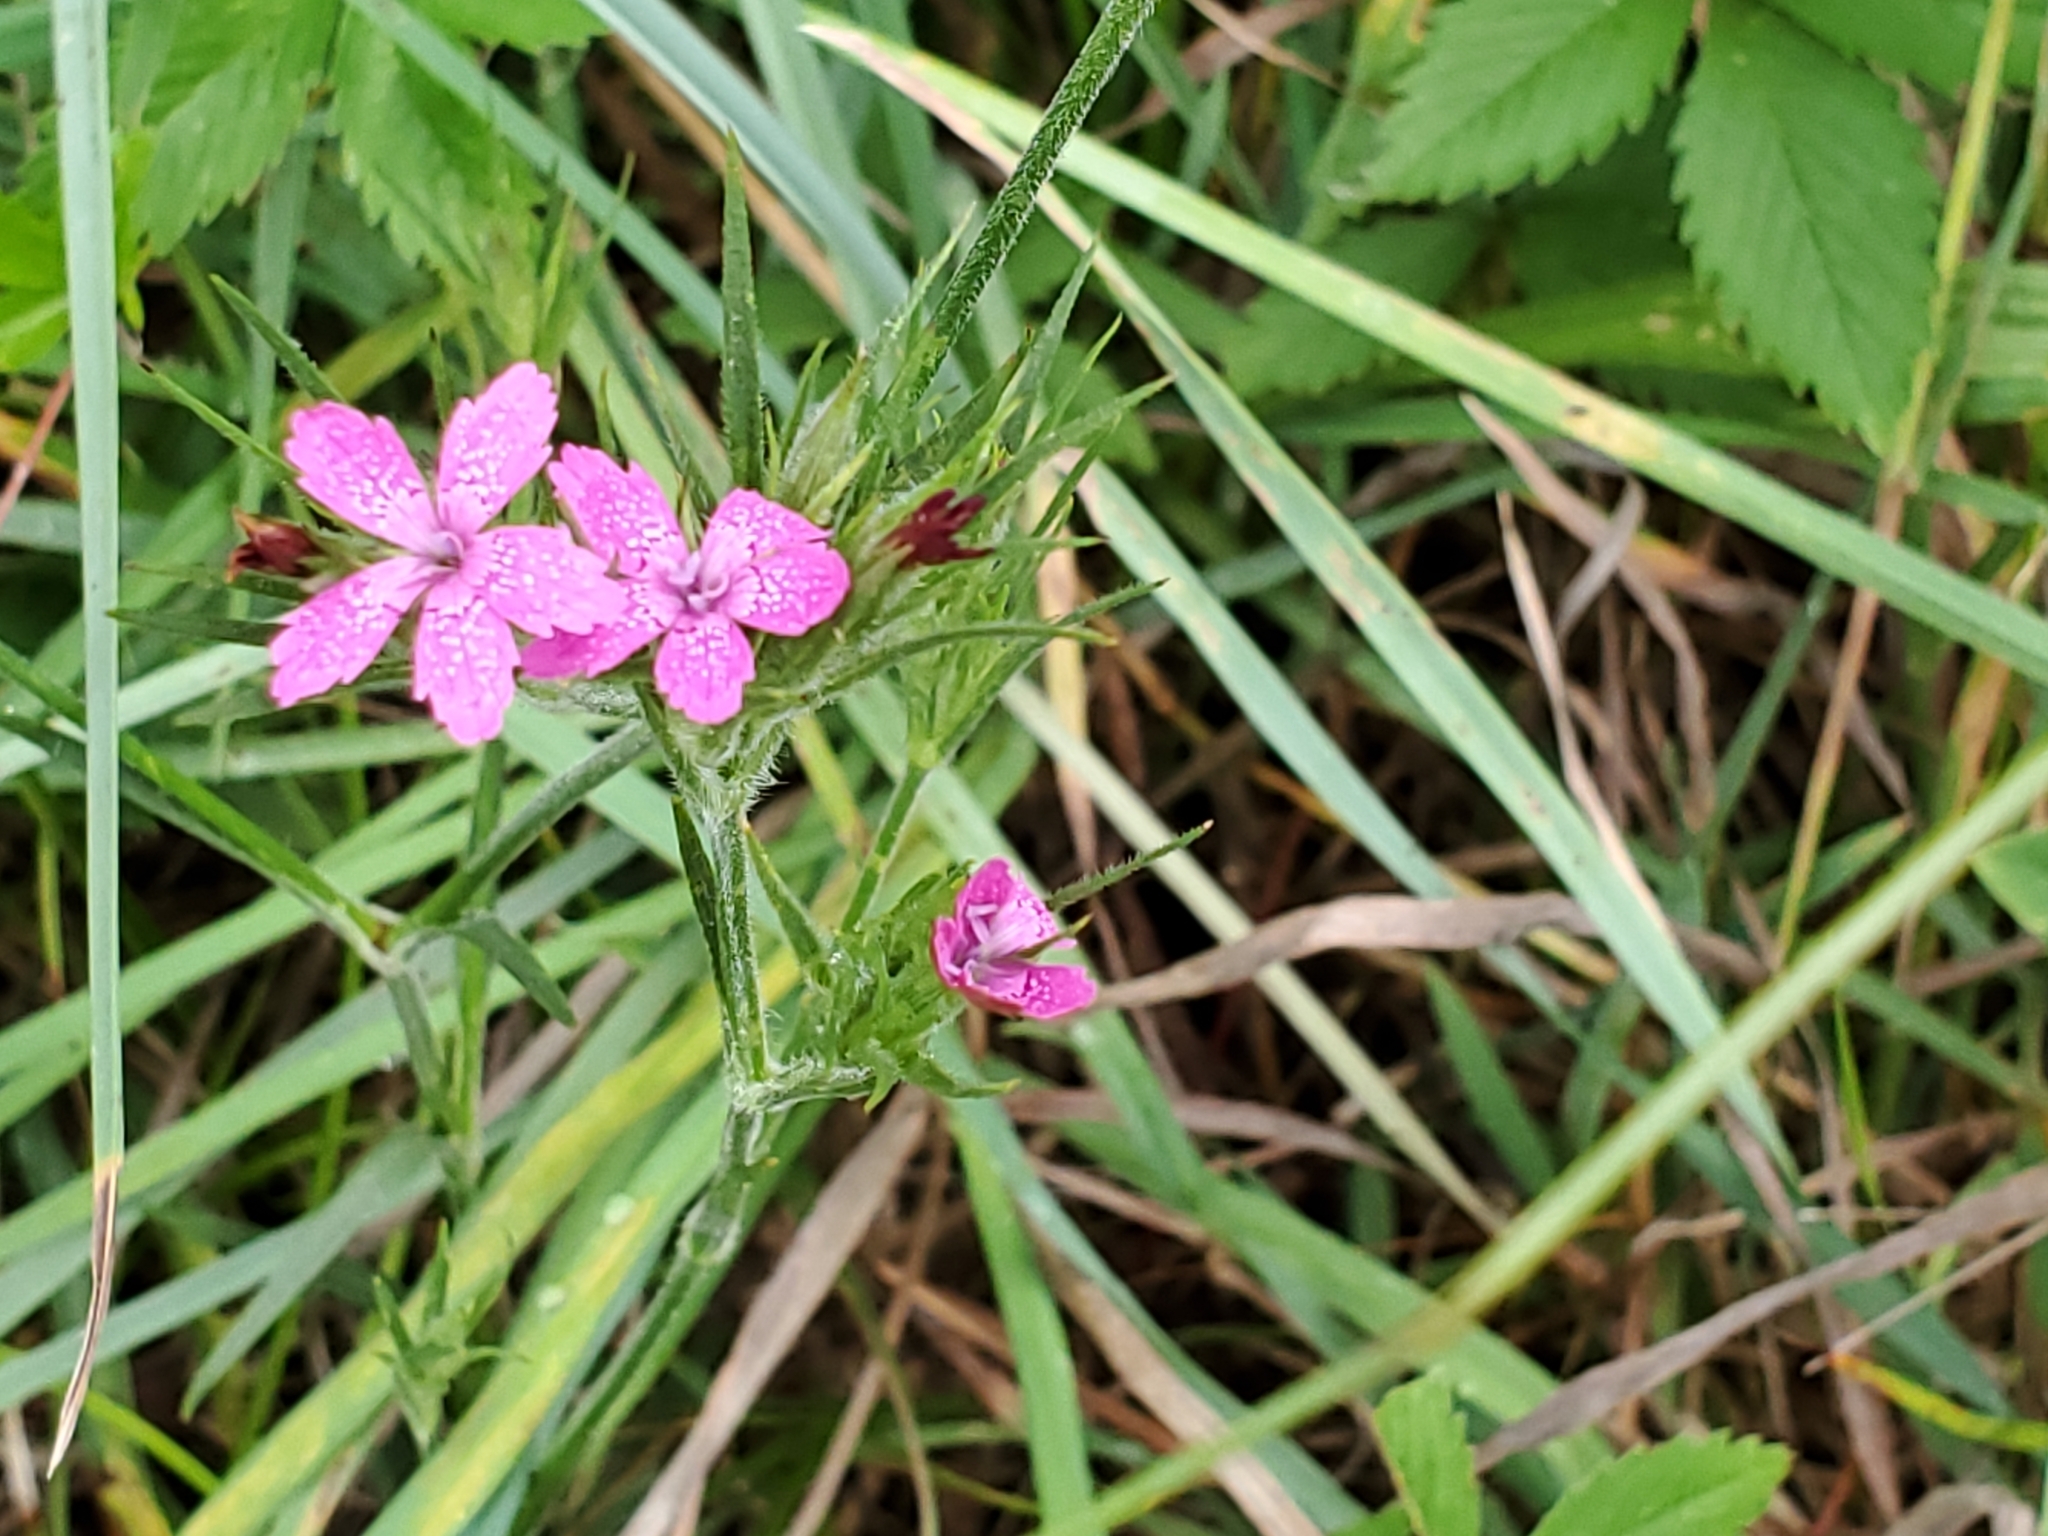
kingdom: Plantae
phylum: Tracheophyta
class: Magnoliopsida
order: Caryophyllales
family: Caryophyllaceae
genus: Dianthus
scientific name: Dianthus armeria
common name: Deptford pink
